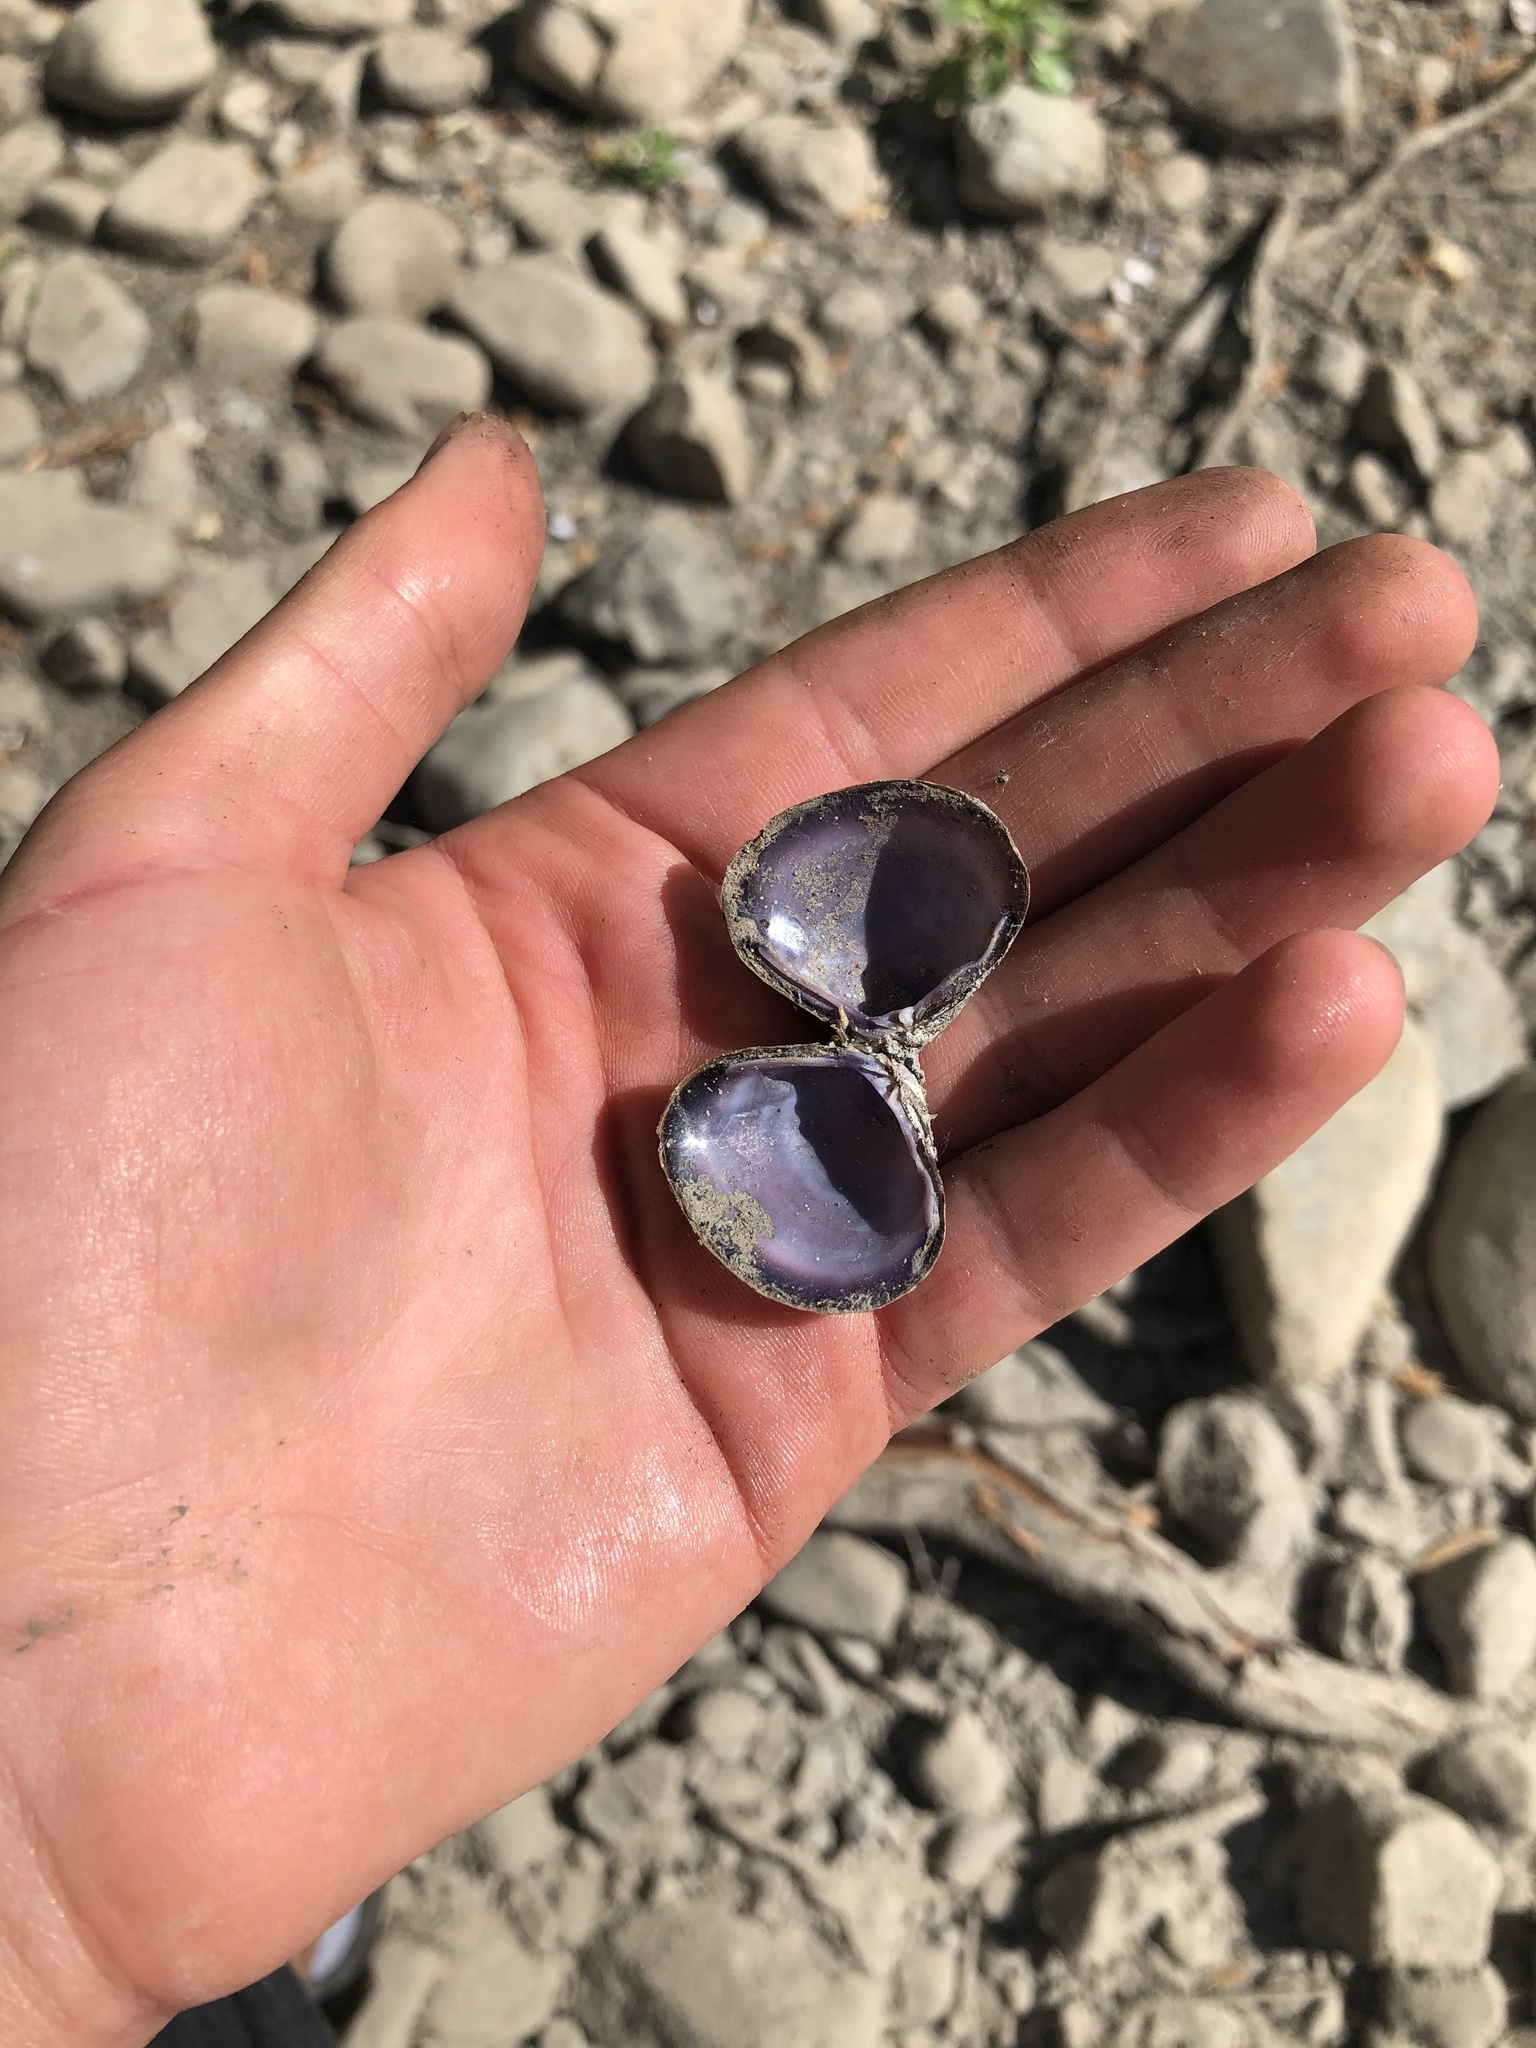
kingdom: Animalia
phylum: Mollusca
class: Bivalvia
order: Venerida
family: Cyrenidae
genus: Corbicula
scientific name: Corbicula fluminea
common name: Asian clam
